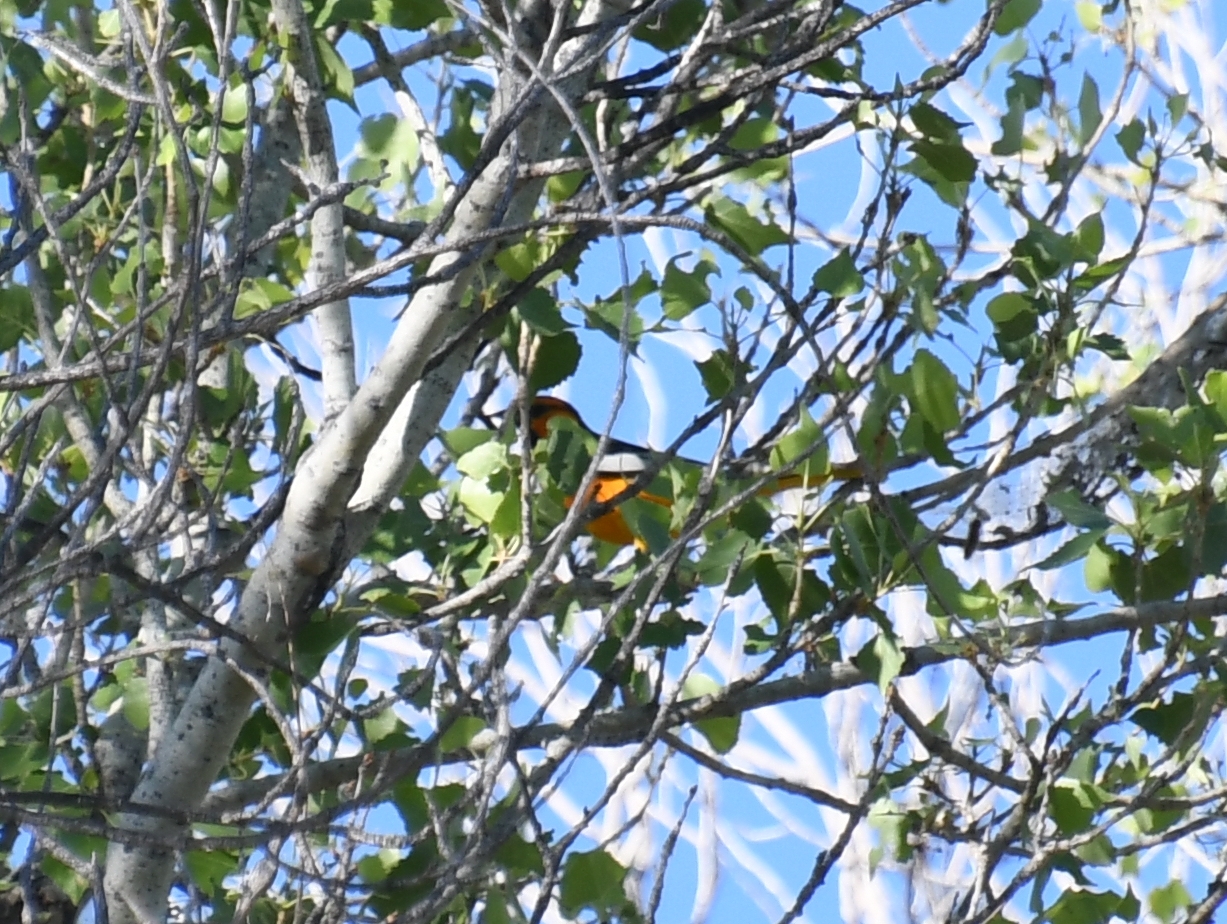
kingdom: Animalia
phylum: Chordata
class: Aves
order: Passeriformes
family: Icteridae
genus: Icterus
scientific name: Icterus bullockii
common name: Bullock's oriole
